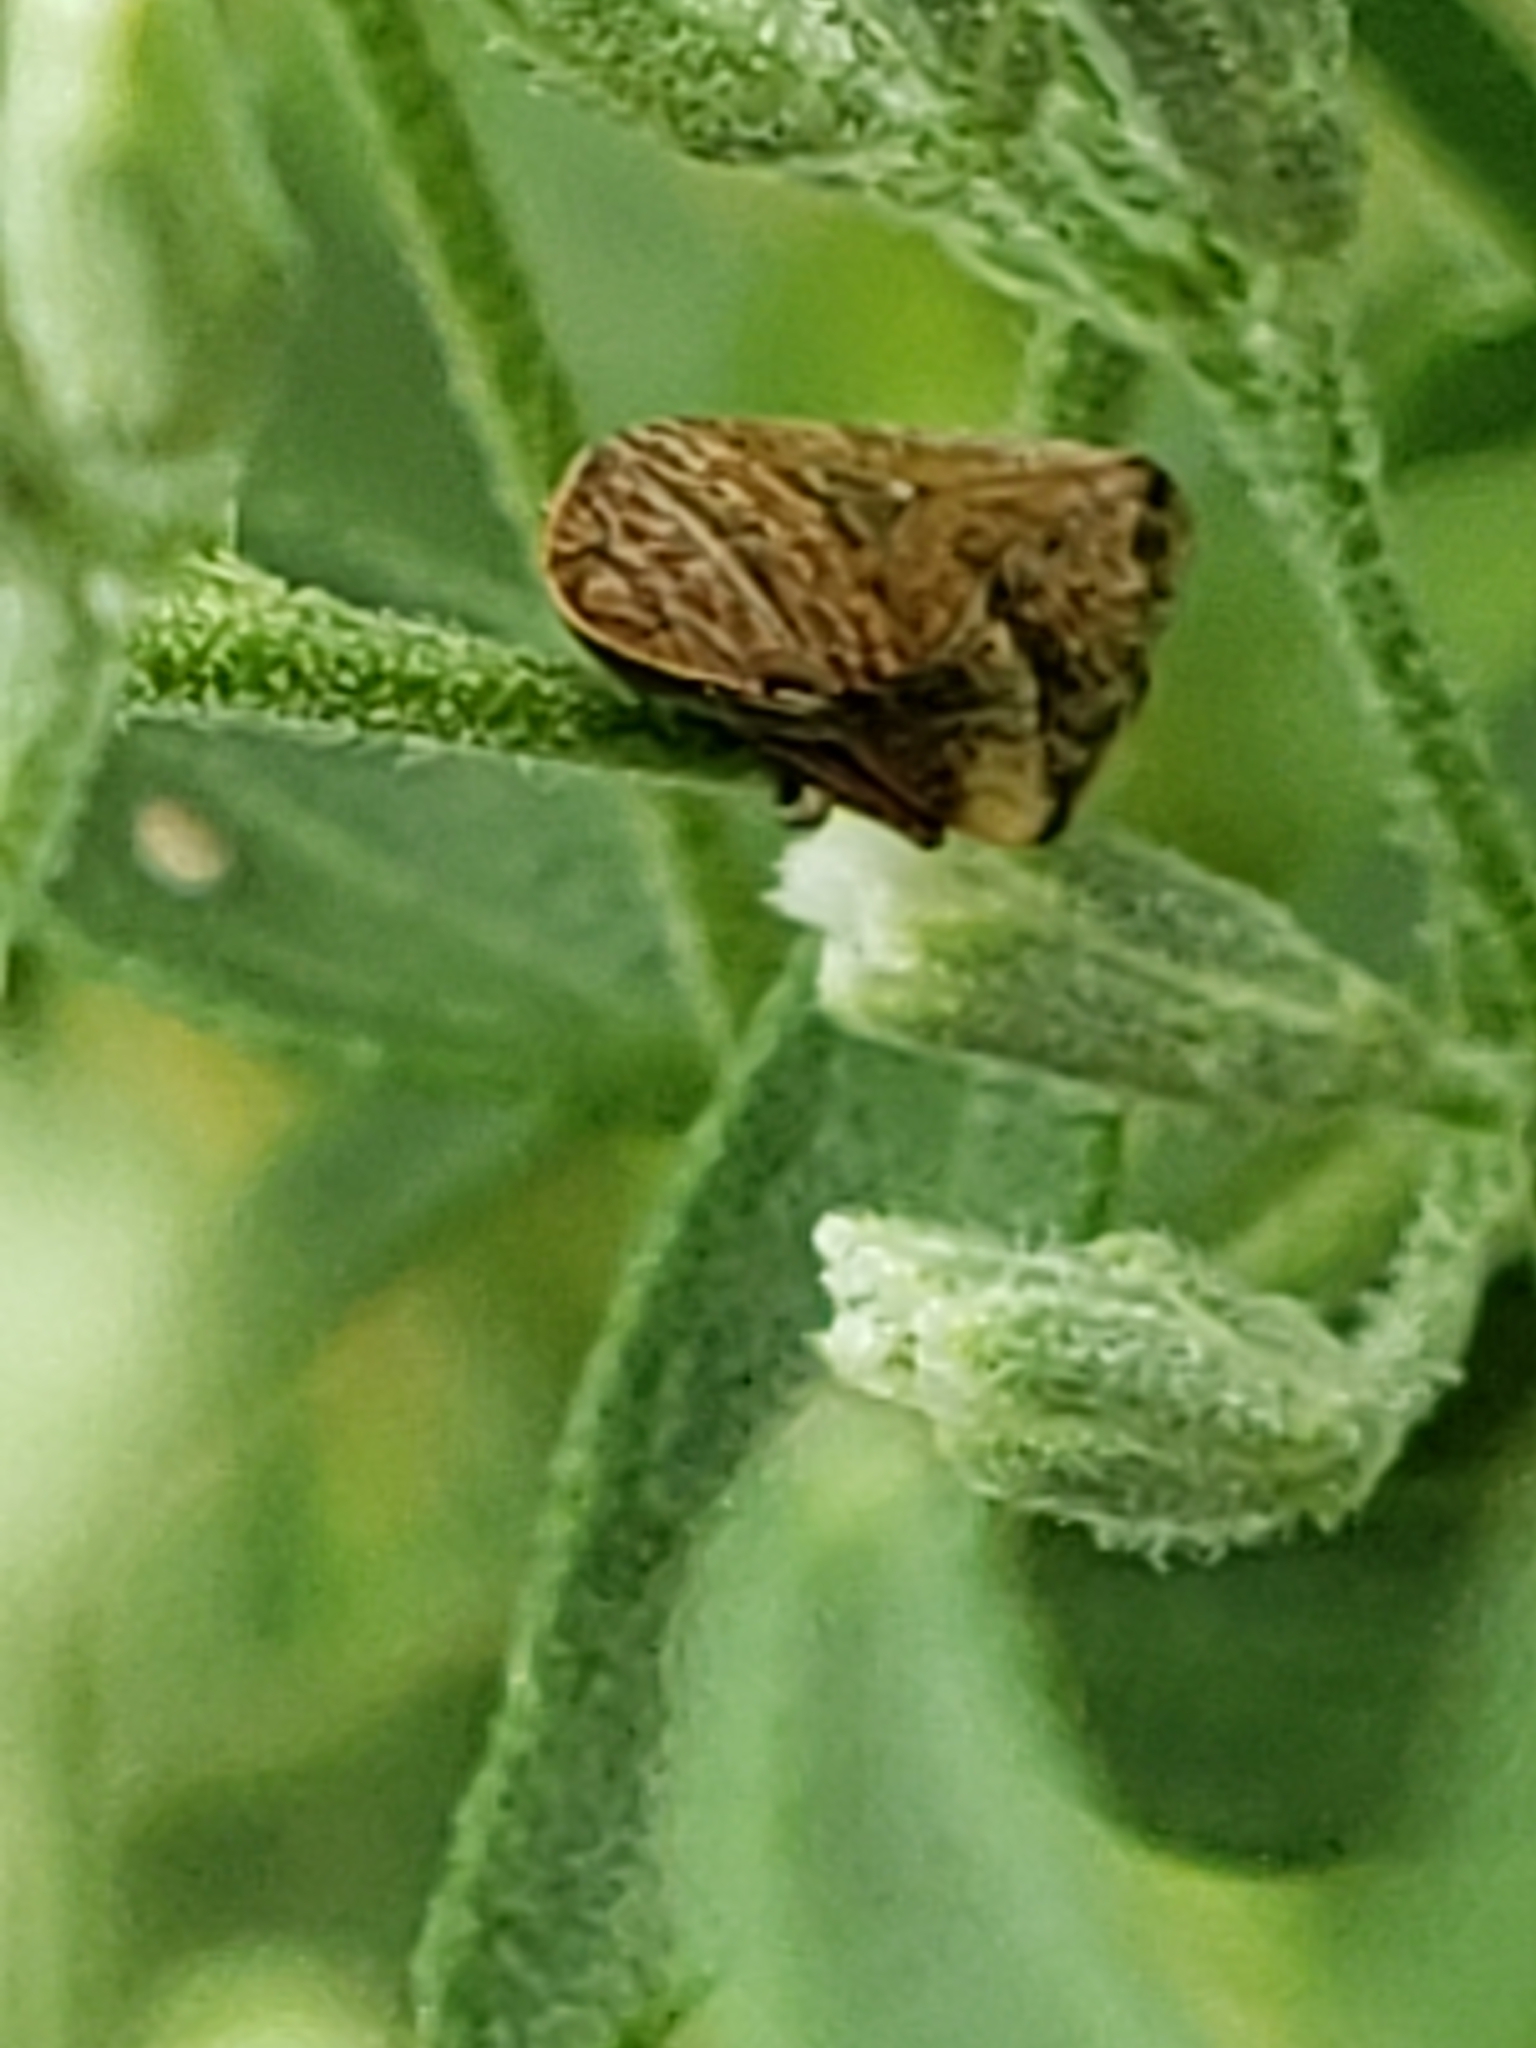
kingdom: Animalia
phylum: Arthropoda
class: Insecta
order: Hemiptera
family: Aphrophoridae
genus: Lepyronia
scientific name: Lepyronia quadrangularis
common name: Diamond-backed spittlebug
